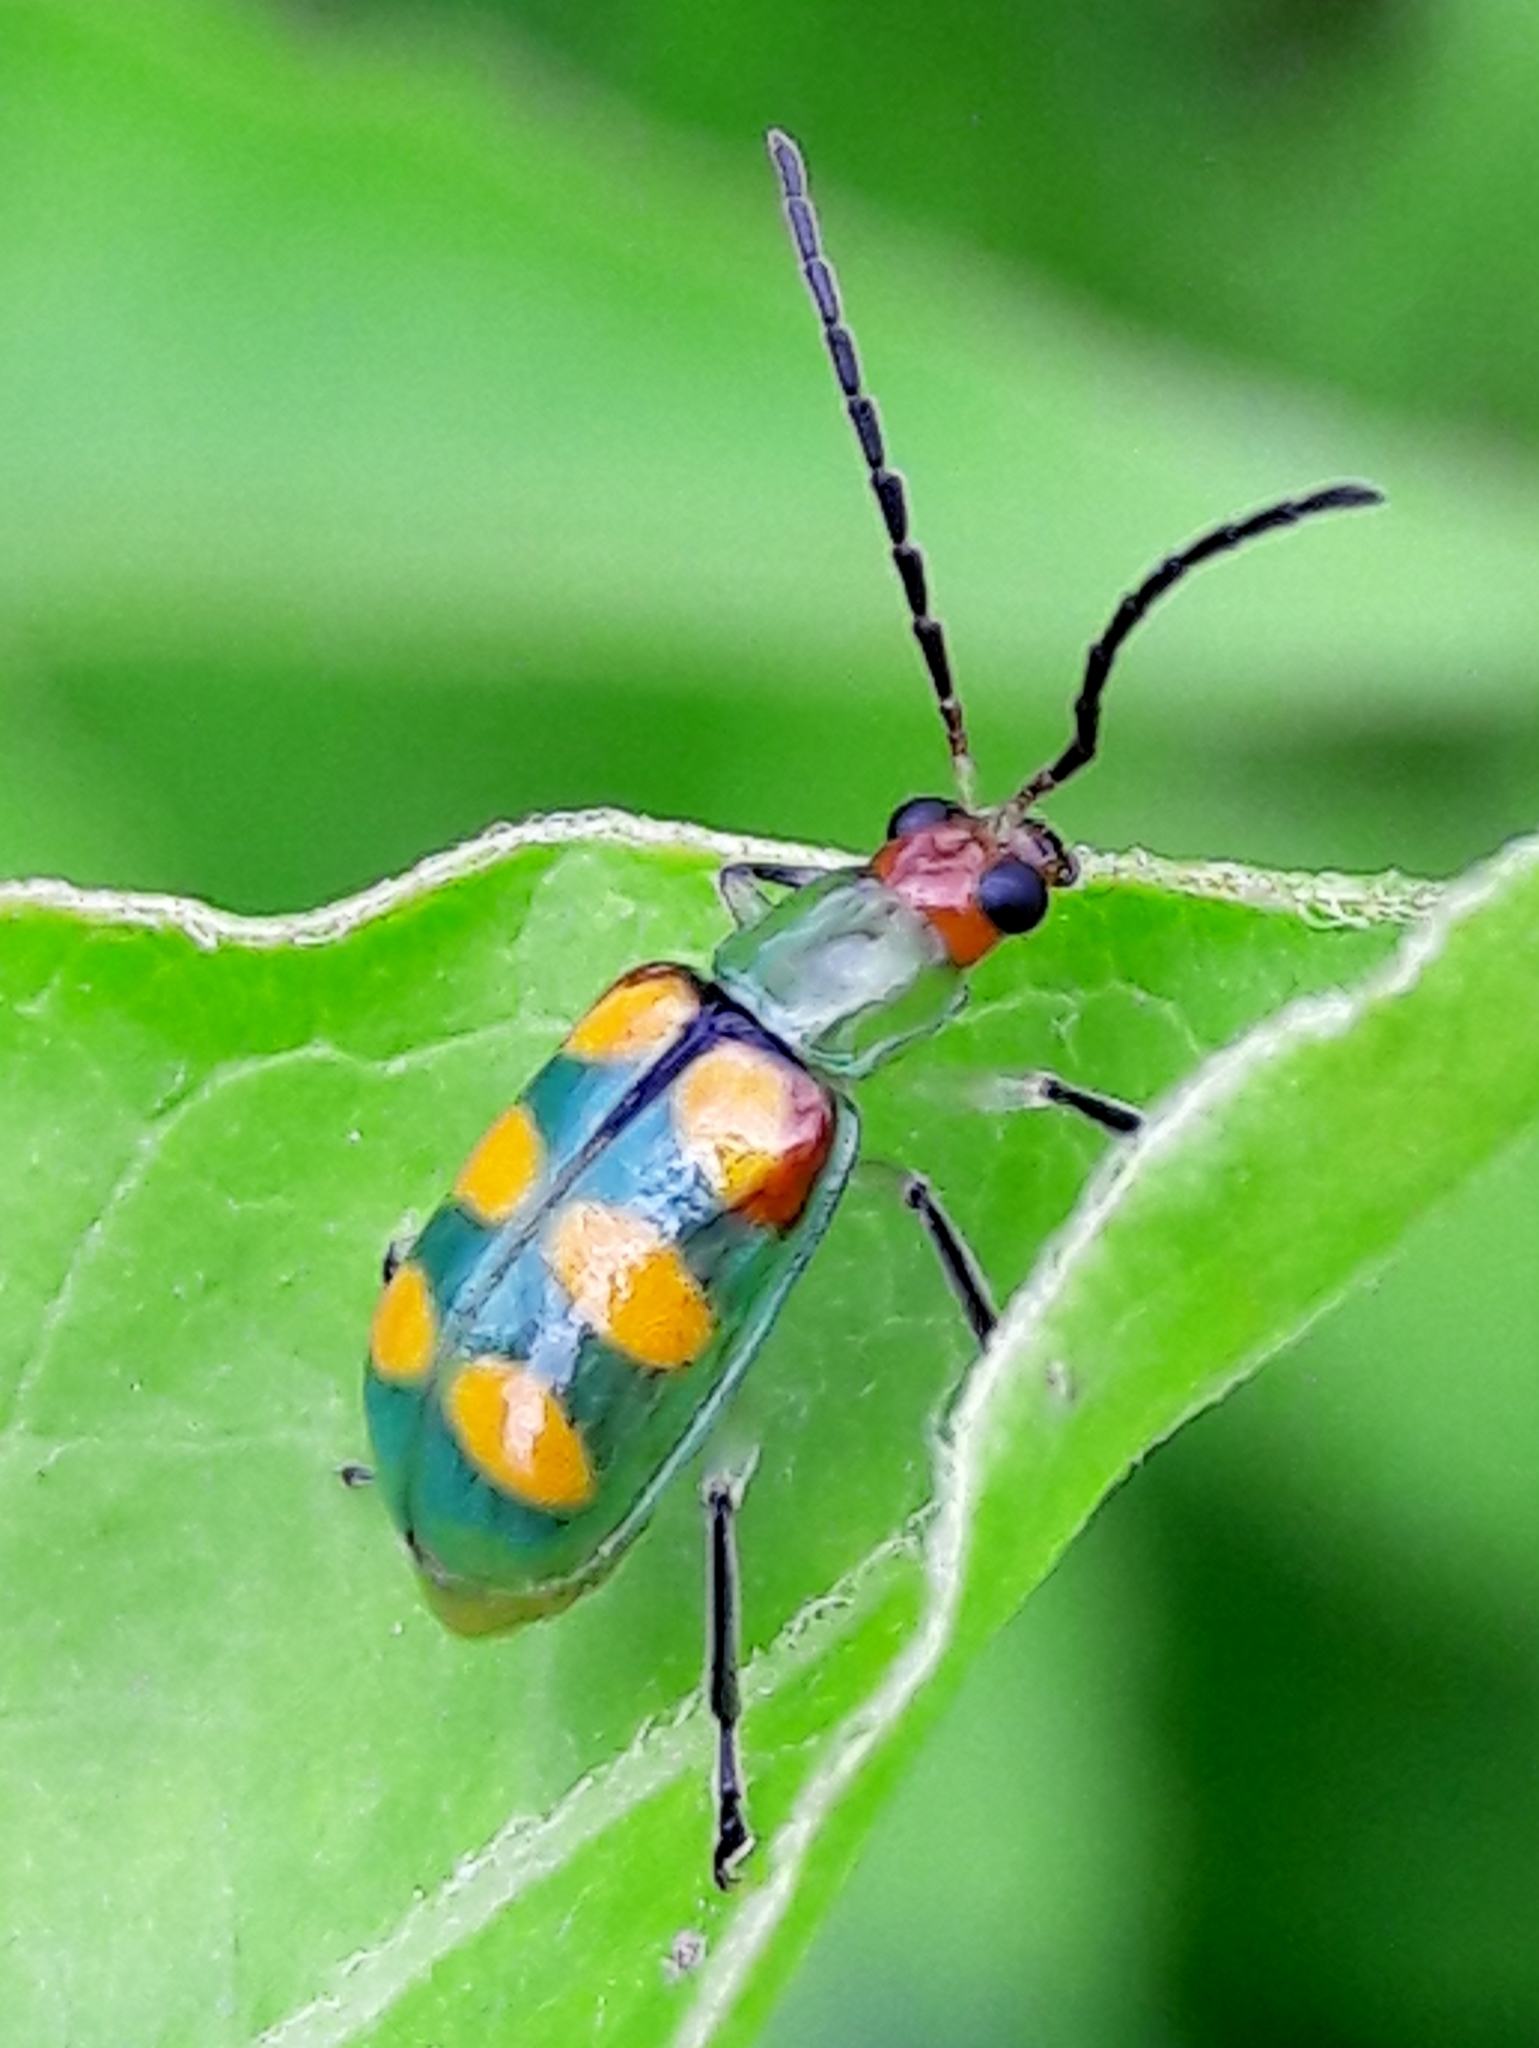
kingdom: Animalia
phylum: Arthropoda
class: Insecta
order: Coleoptera
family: Chrysomelidae
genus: Diabrotica
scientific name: Diabrotica speciosa
